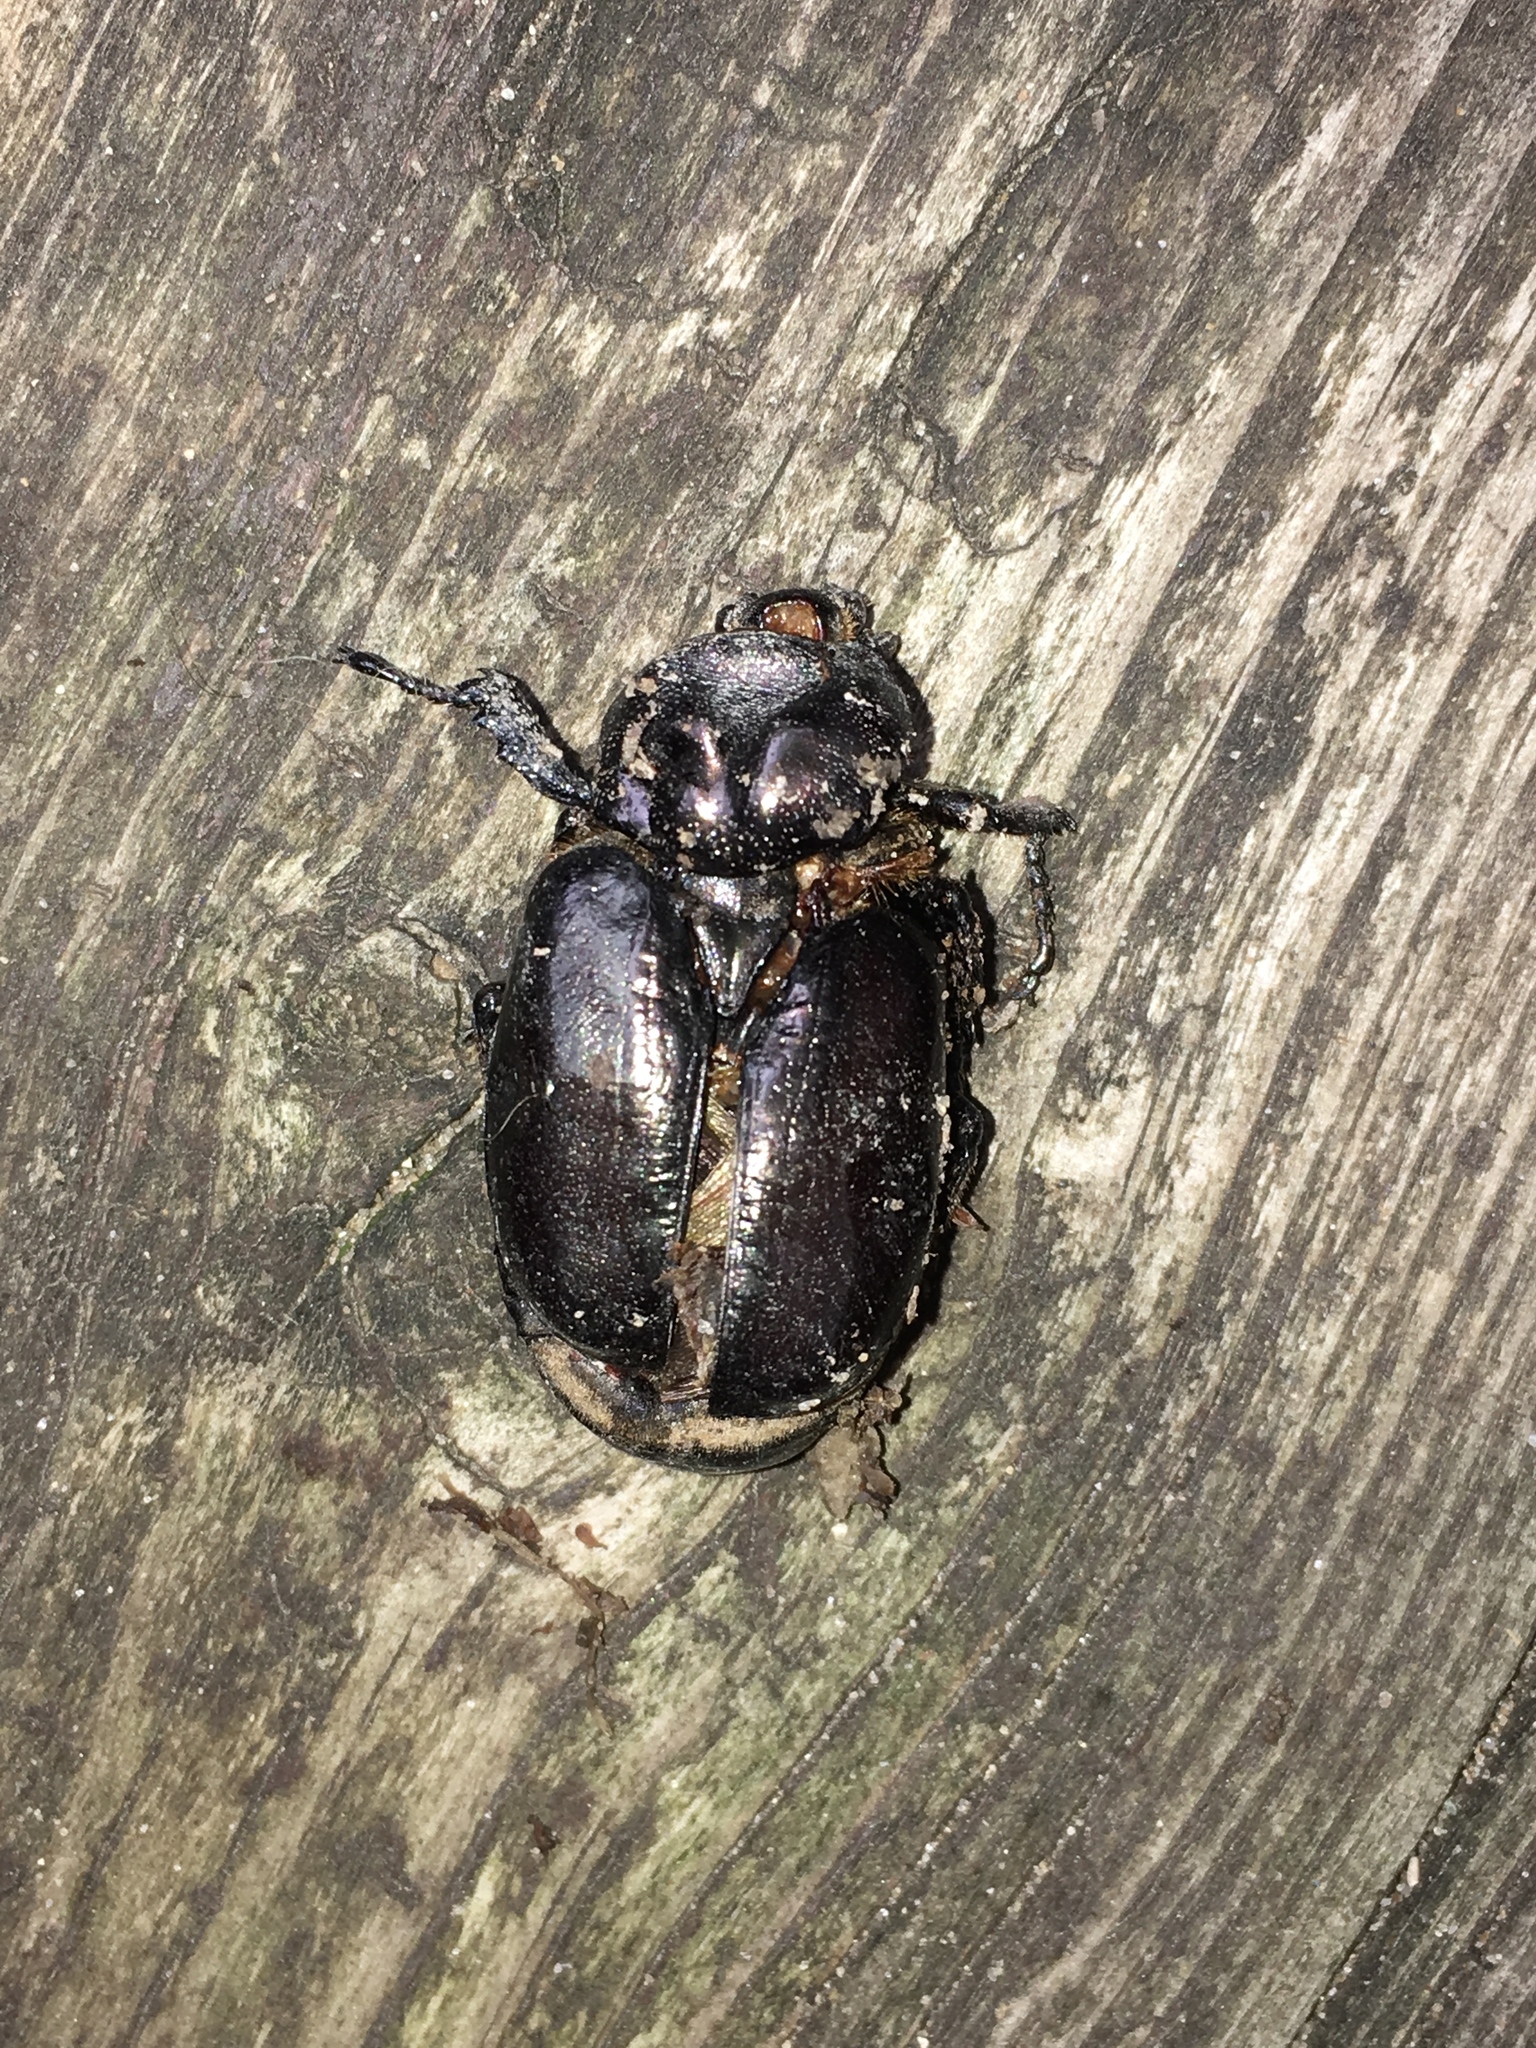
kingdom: Animalia
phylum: Arthropoda
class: Insecta
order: Coleoptera
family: Scarabaeidae
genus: Osmoderma
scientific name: Osmoderma eremicola
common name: Hermit flower beetle
